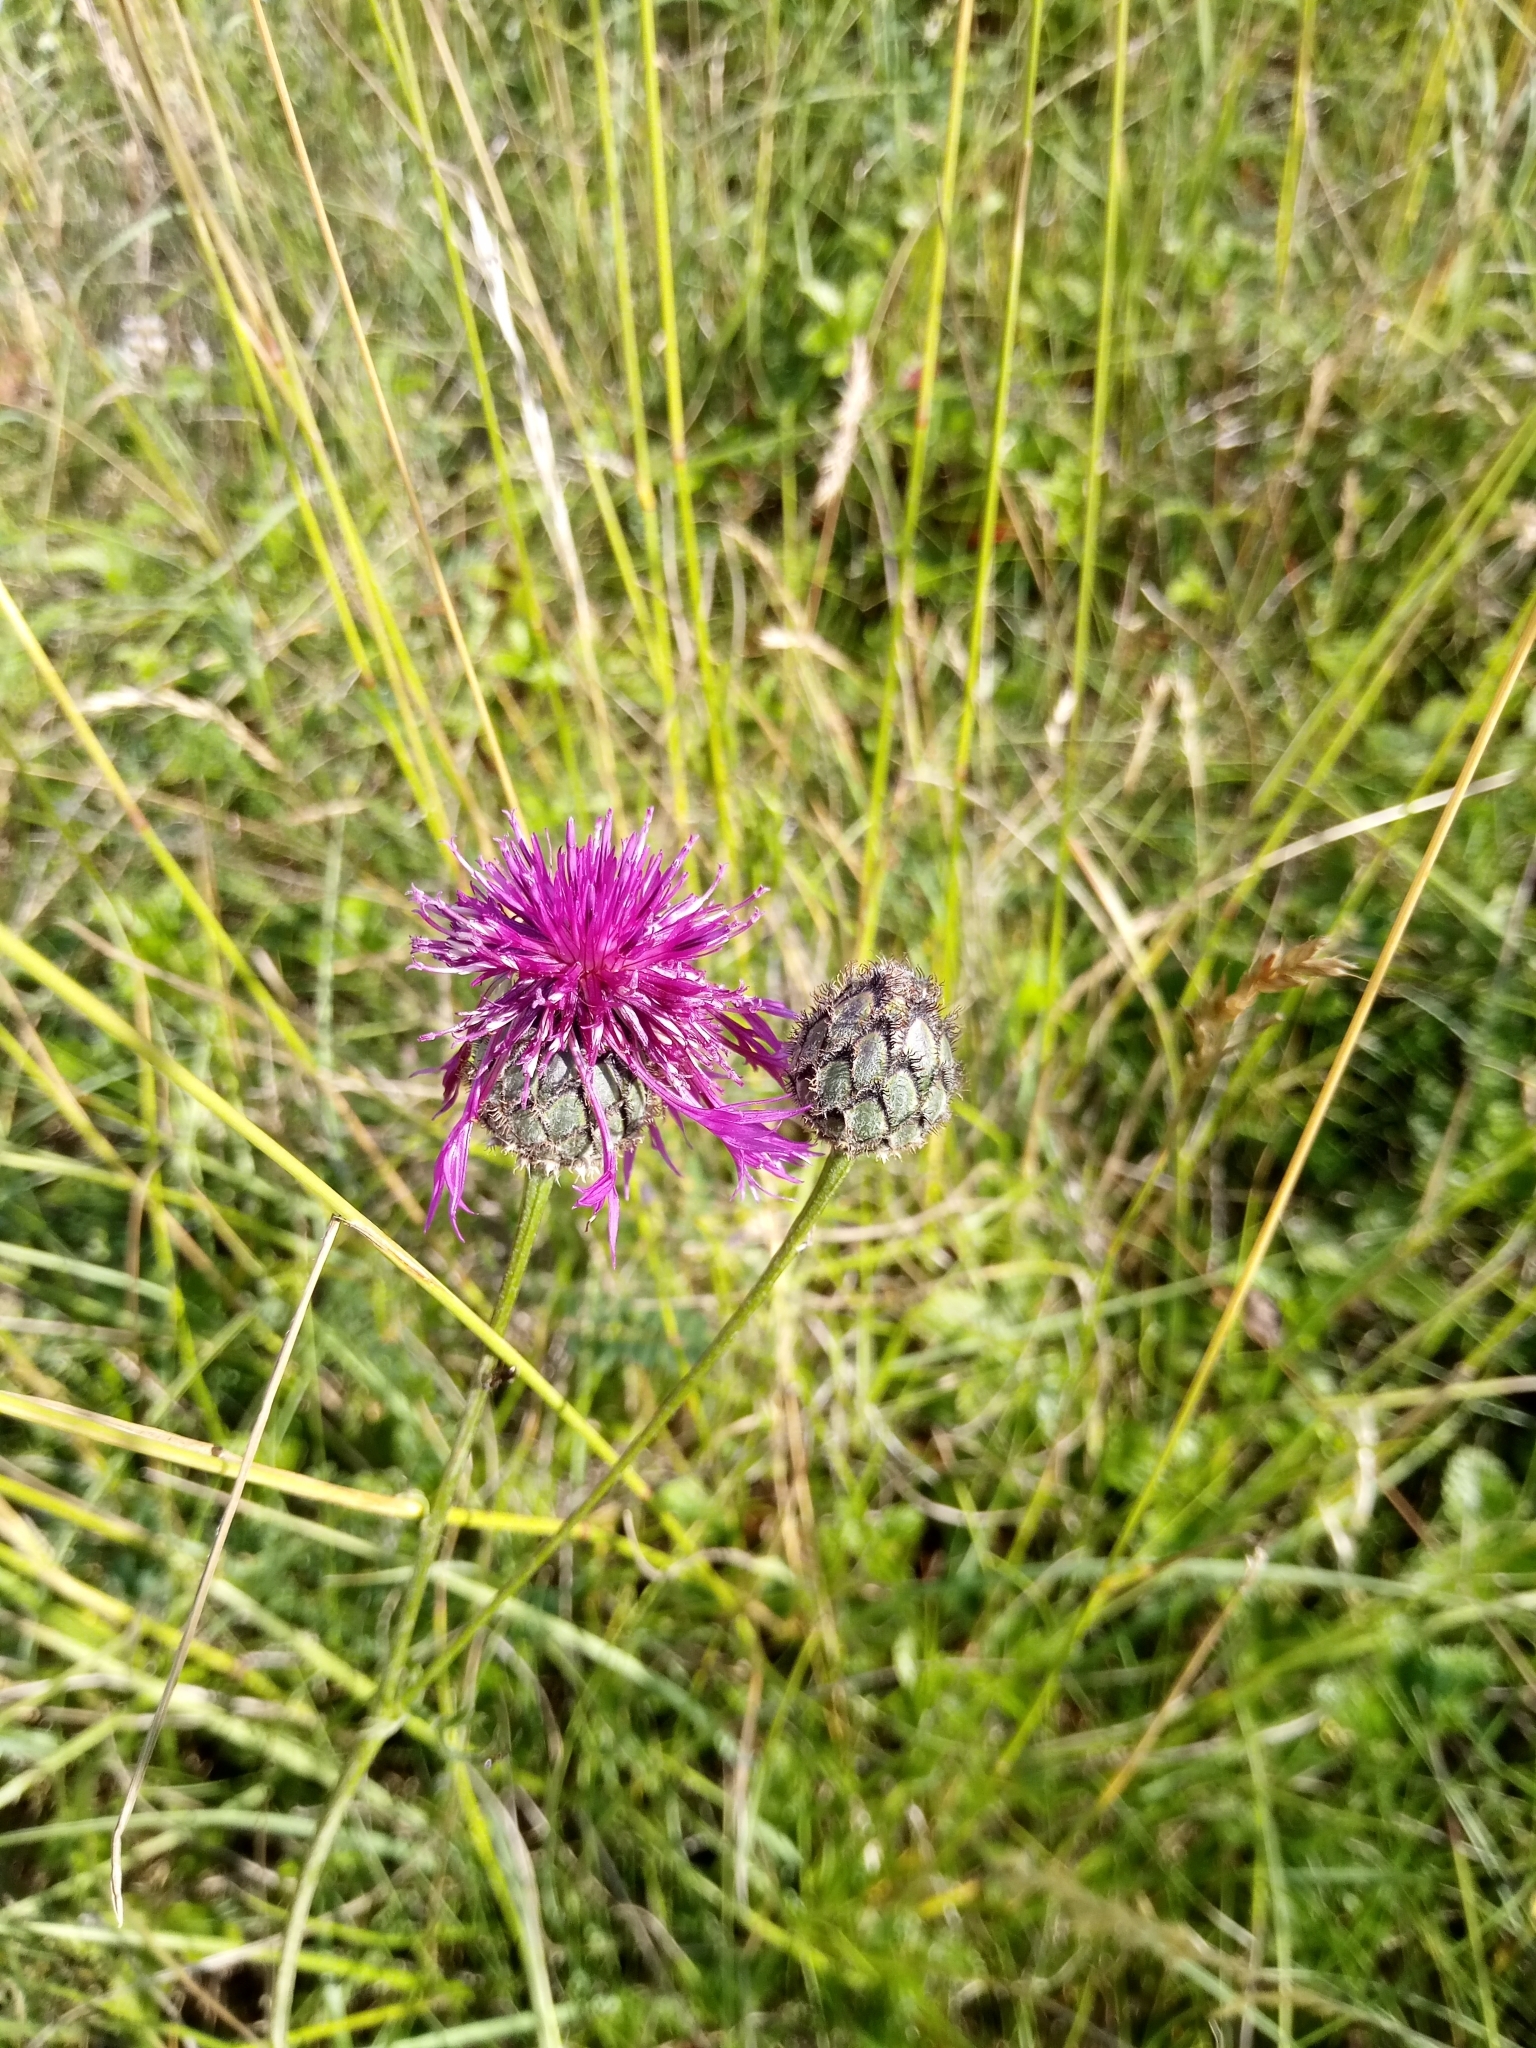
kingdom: Plantae
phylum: Tracheophyta
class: Magnoliopsida
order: Asterales
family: Asteraceae
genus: Centaurea
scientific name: Centaurea scabiosa
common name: Greater knapweed
